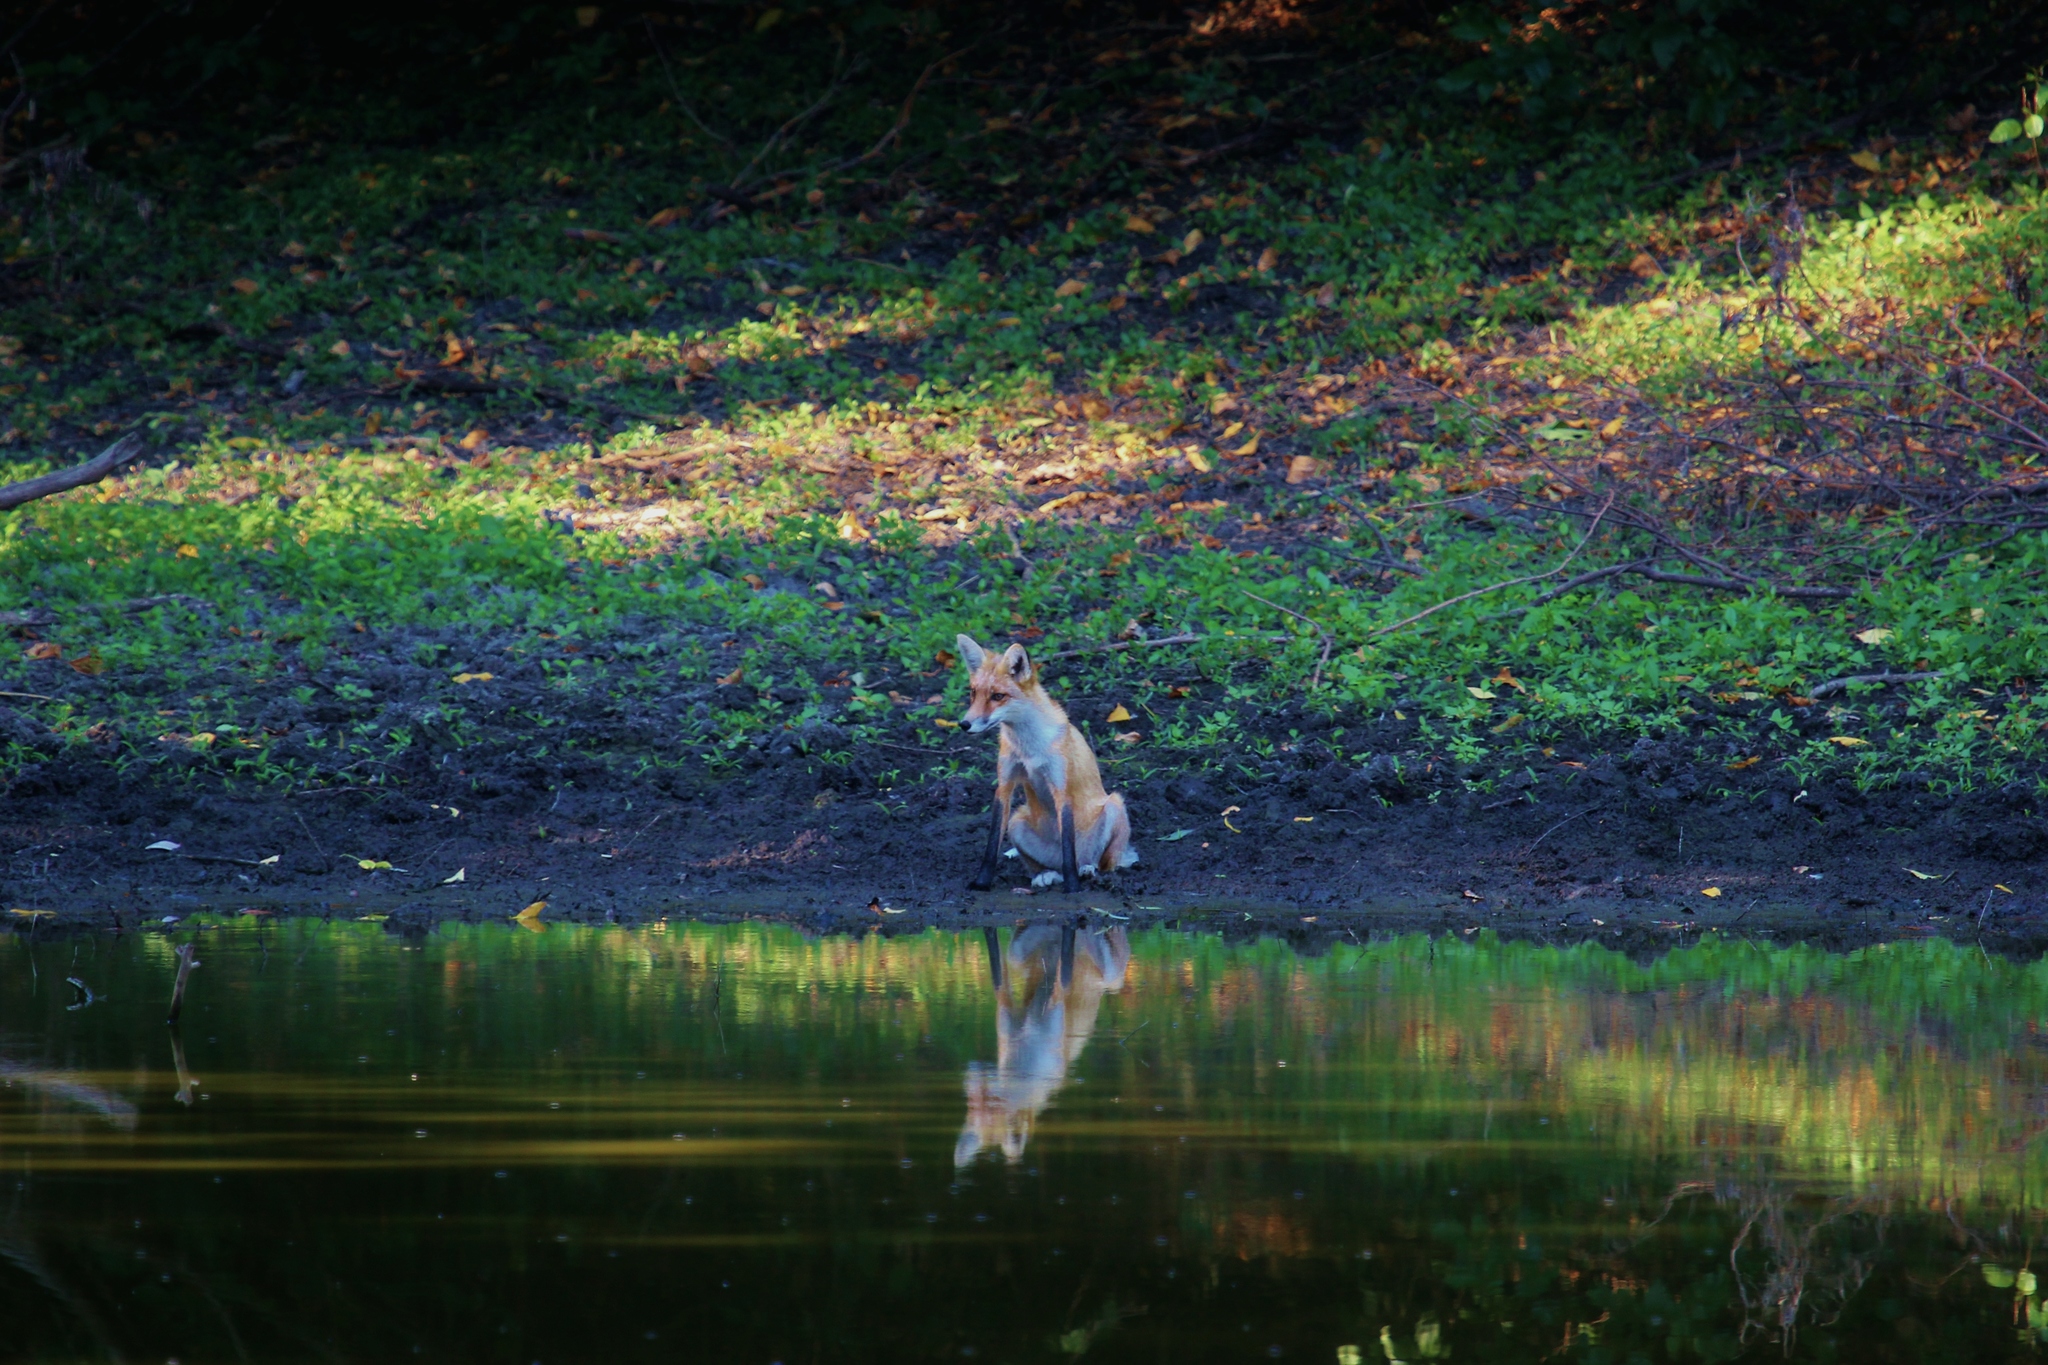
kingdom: Animalia
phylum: Chordata
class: Mammalia
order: Carnivora
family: Canidae
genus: Vulpes
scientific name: Vulpes vulpes
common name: Red fox
